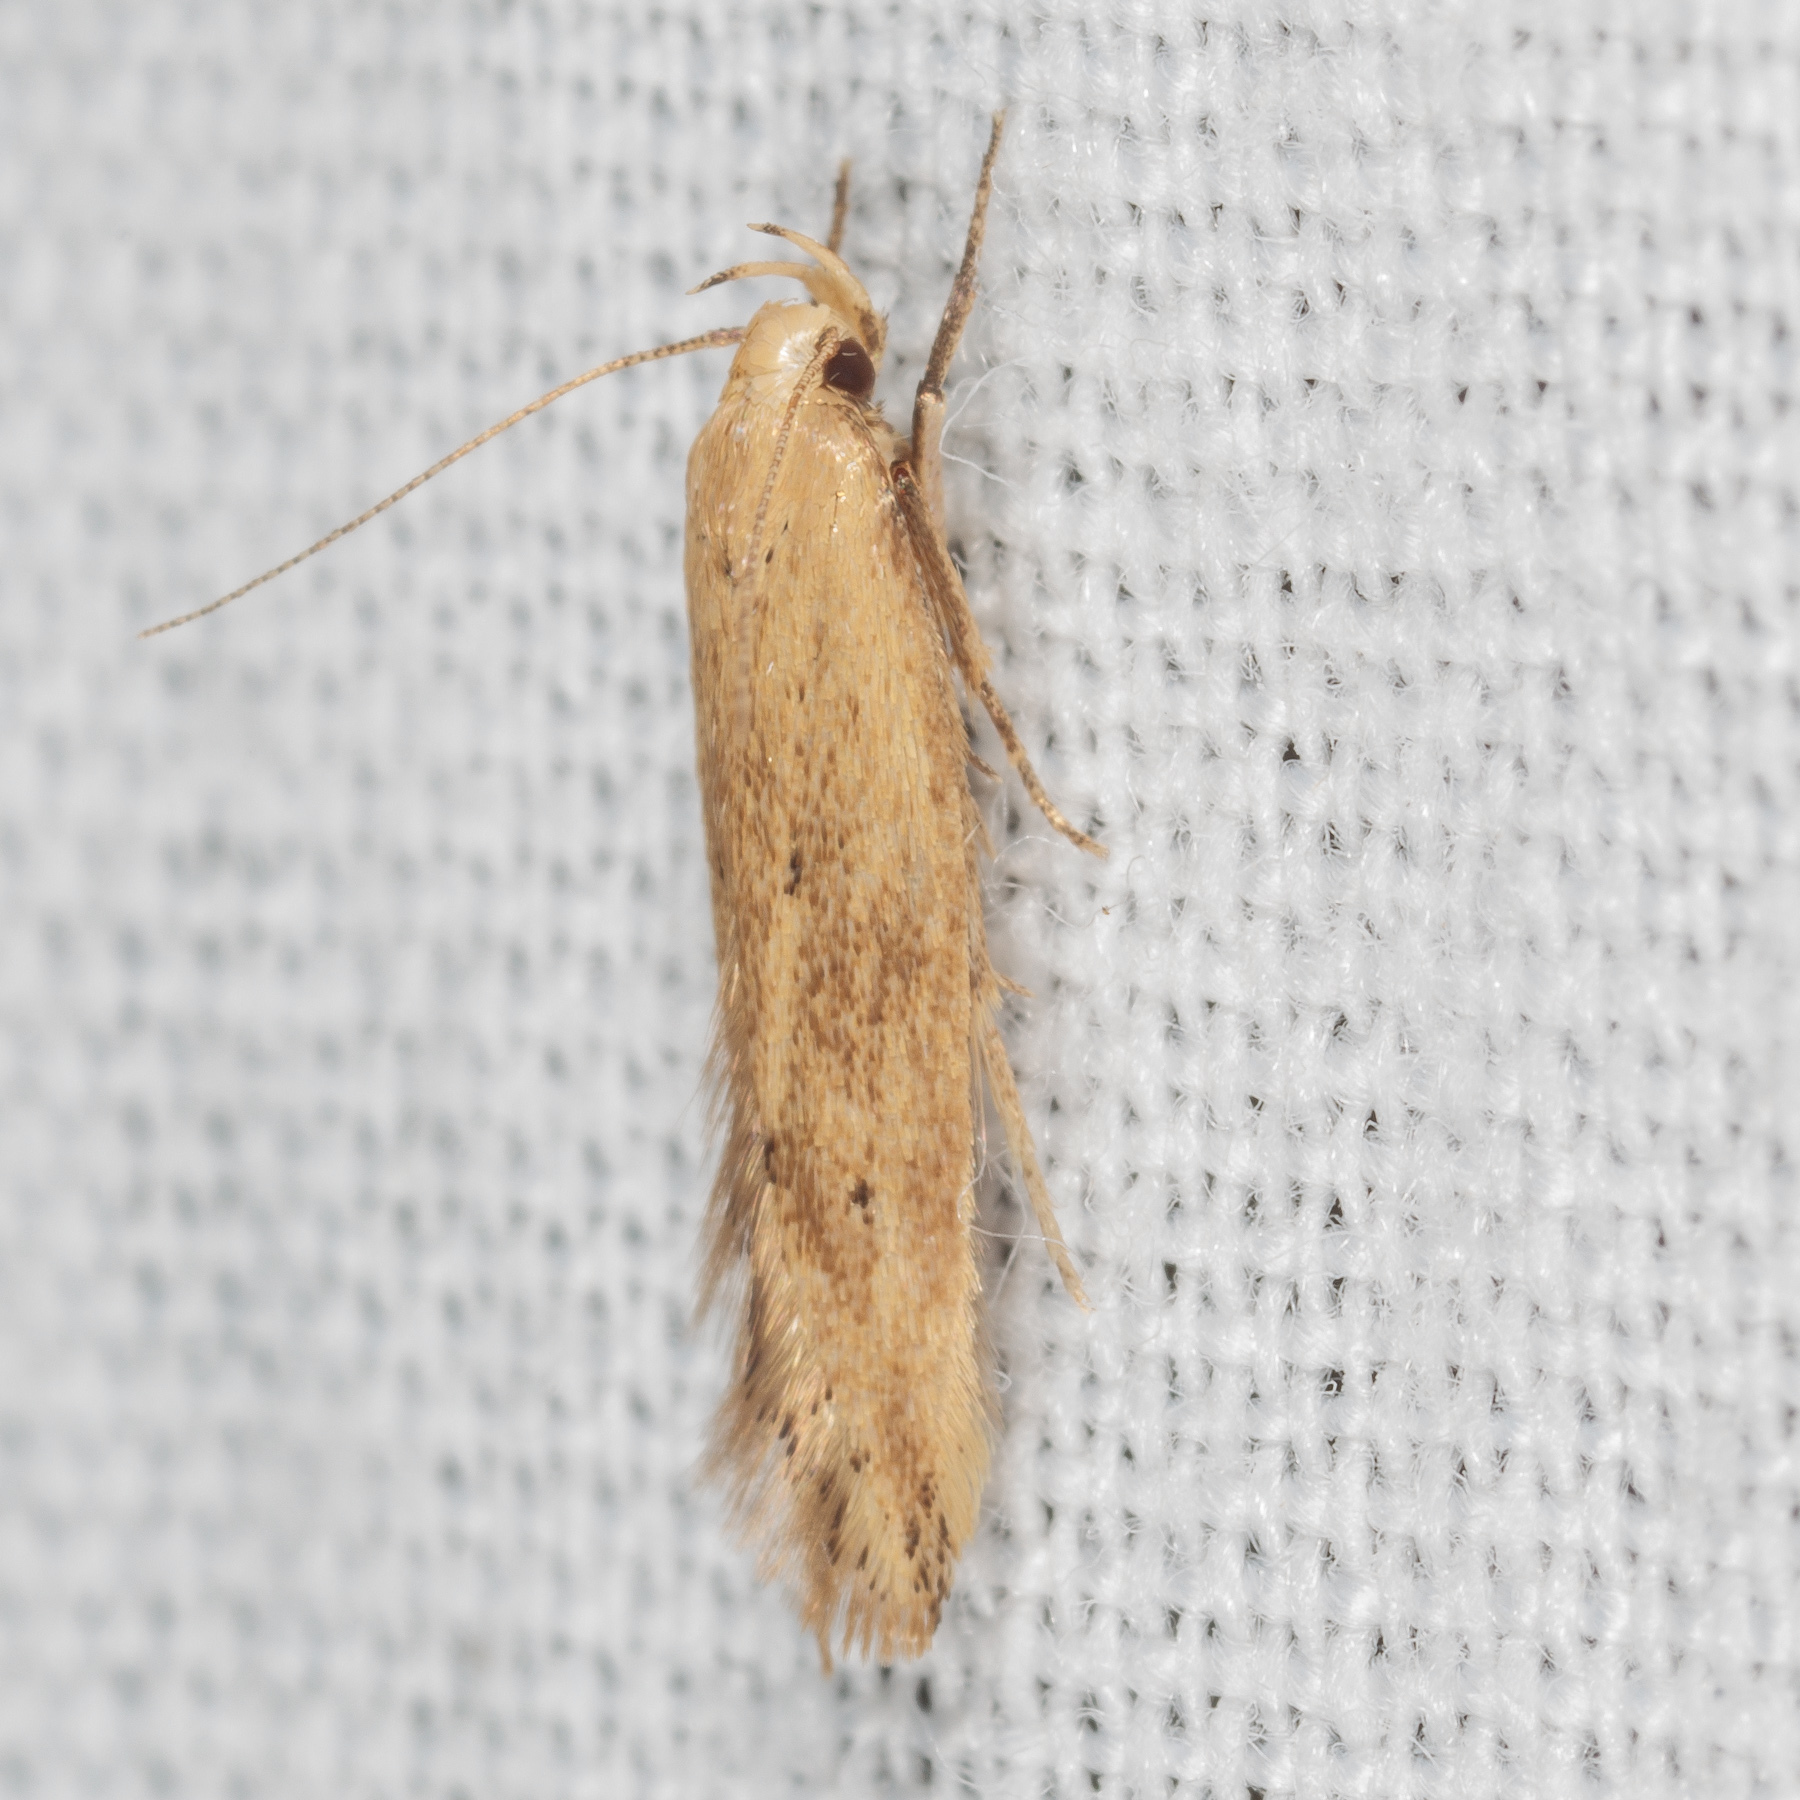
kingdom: Animalia
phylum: Arthropoda
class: Insecta
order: Lepidoptera
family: Gelechiidae
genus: Sitotroga
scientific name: Sitotroga cerealella
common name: Angoumois grain moth
